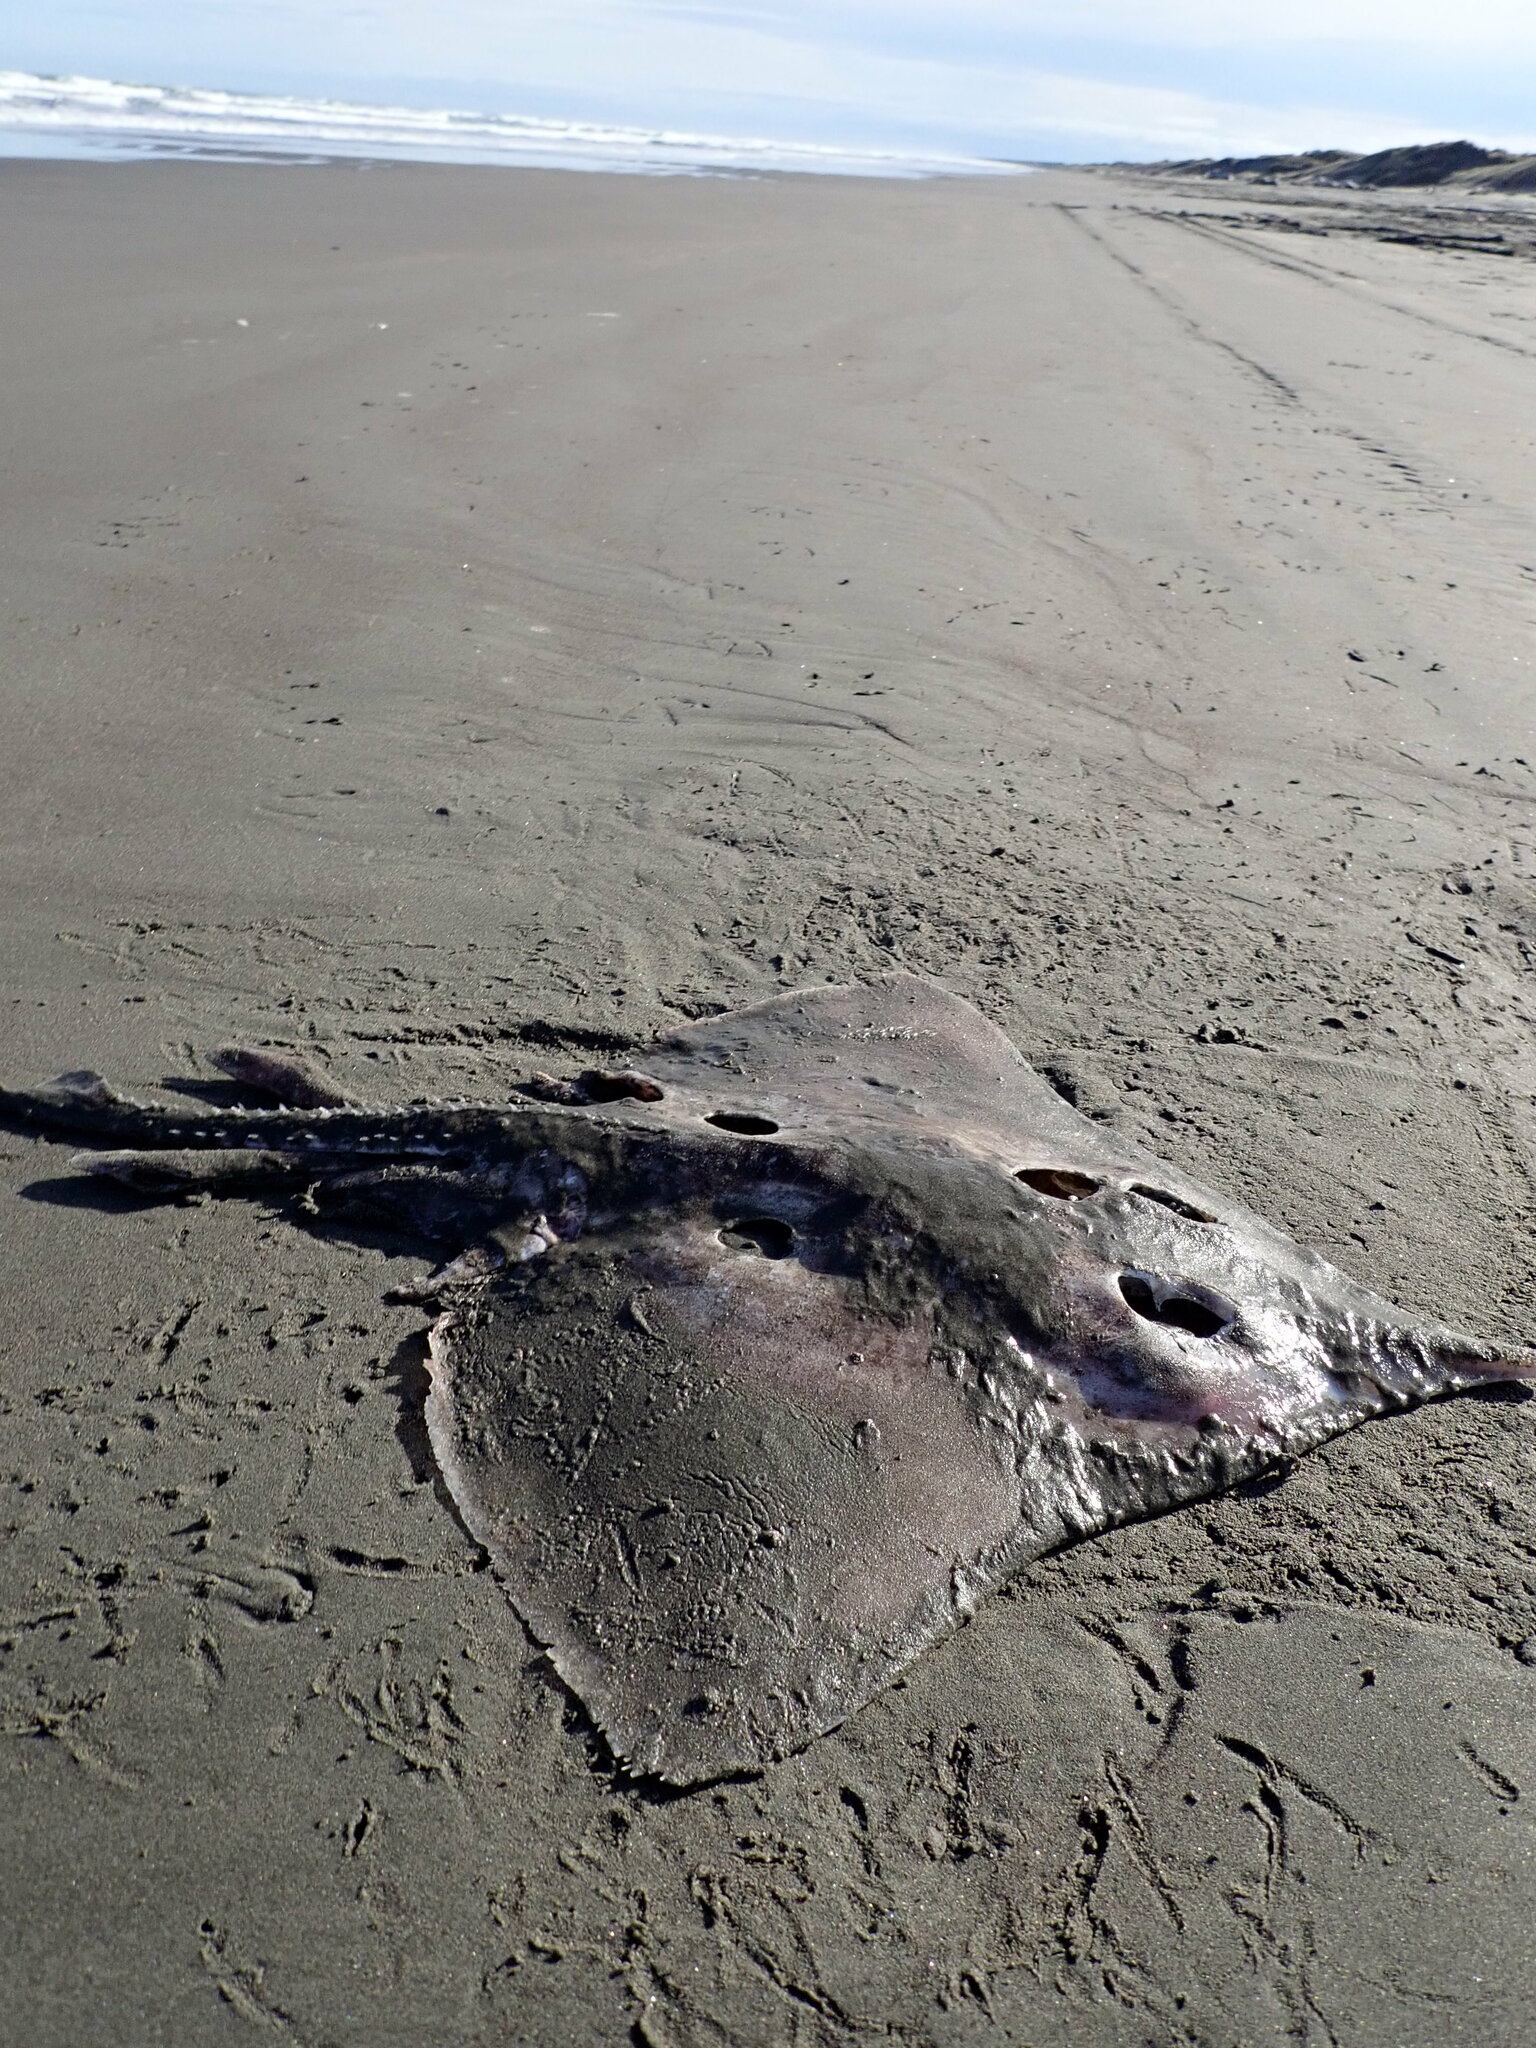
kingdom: Animalia
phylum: Chordata
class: Elasmobranchii
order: Rajiformes
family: Rajidae
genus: Zearaja
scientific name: Zearaja nasuta
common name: New zealand rough skate
